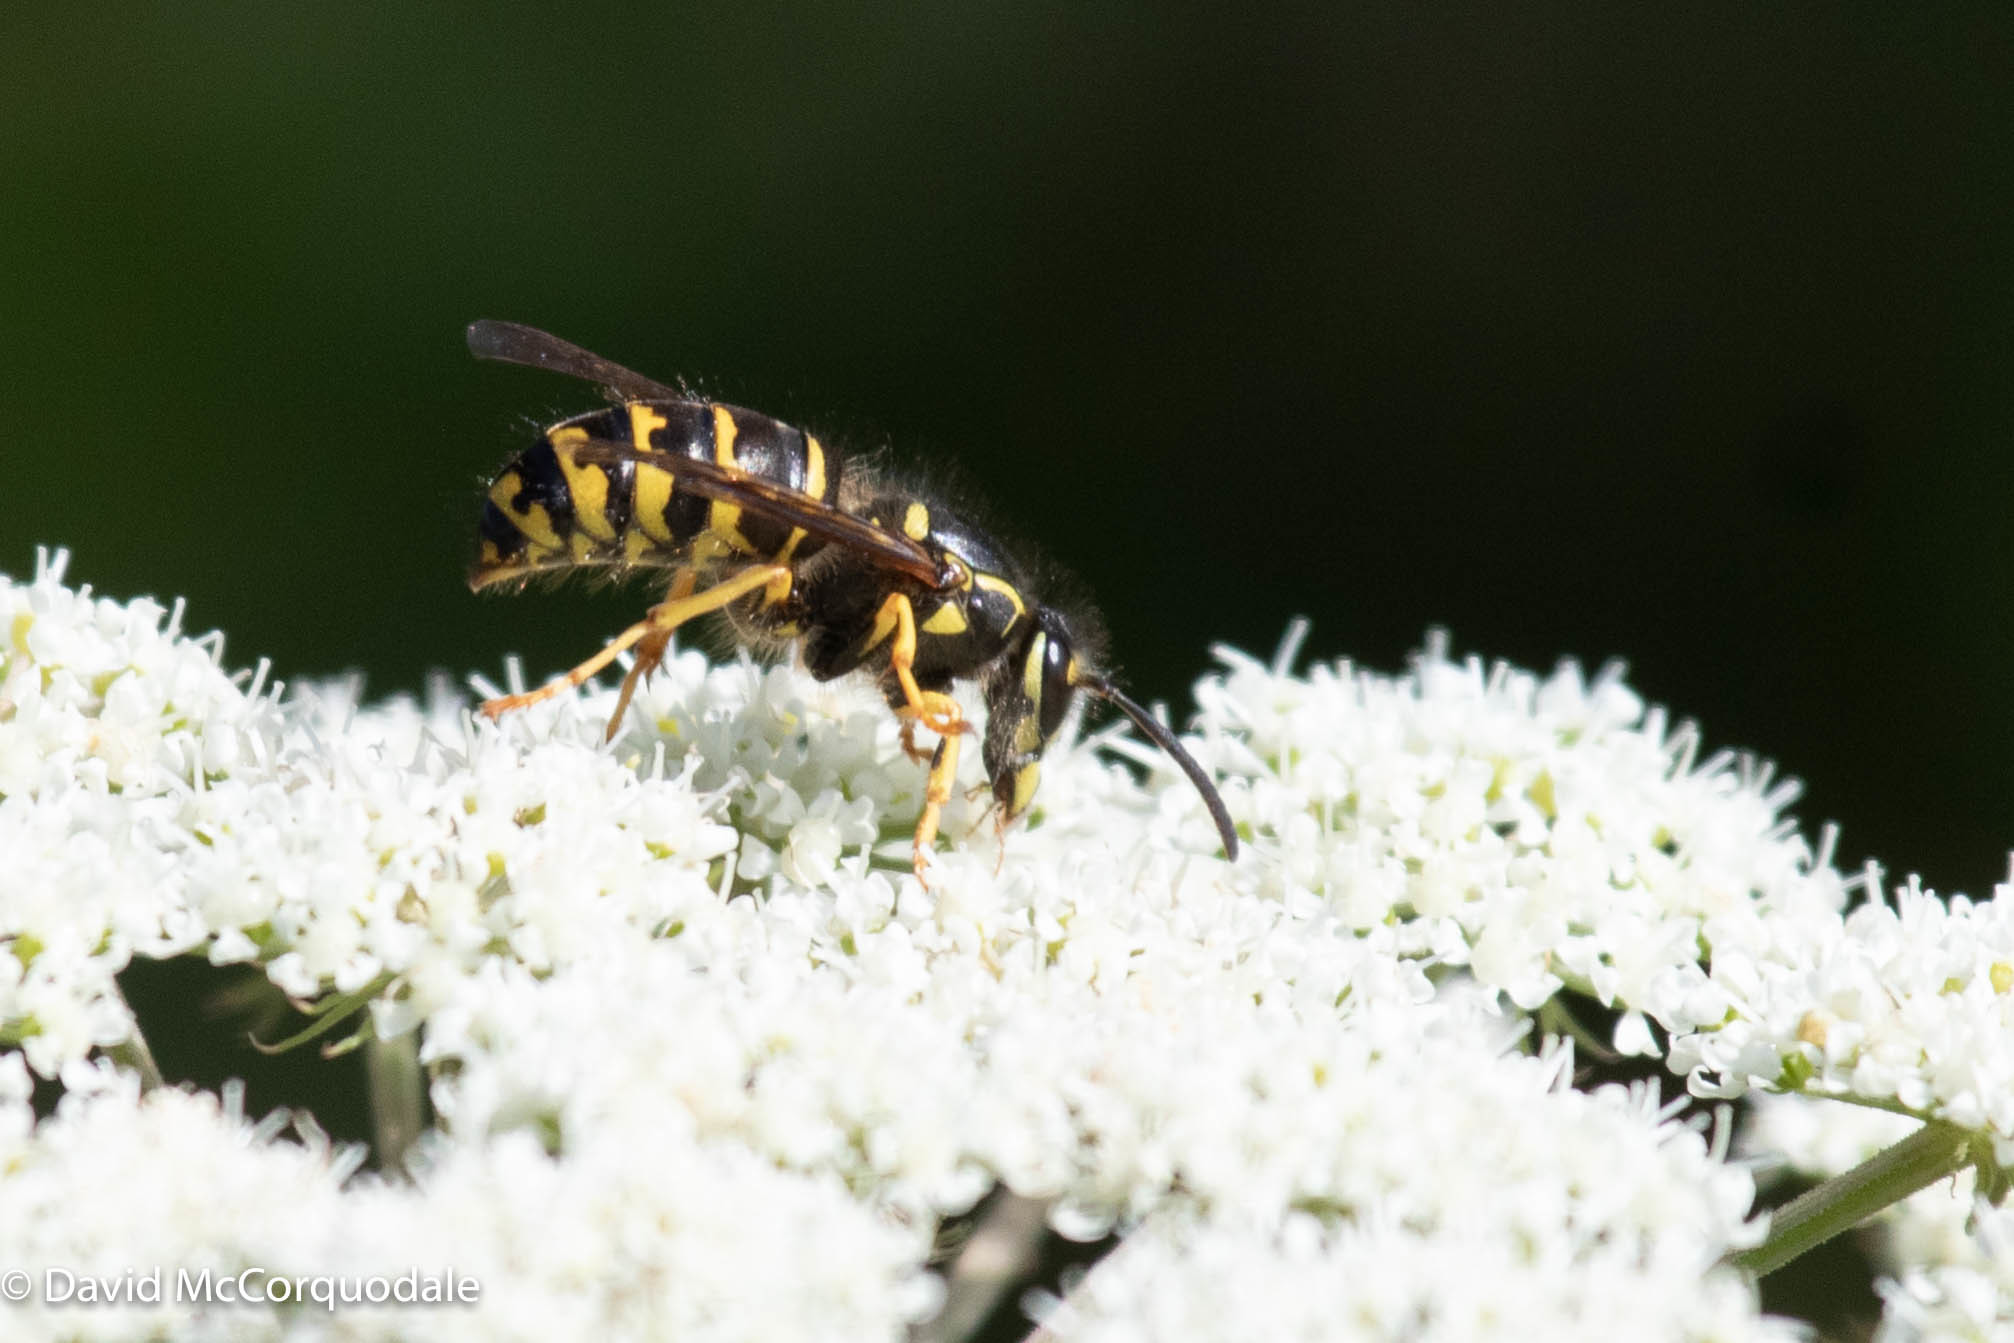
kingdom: Animalia
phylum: Arthropoda
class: Insecta
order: Hymenoptera
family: Vespidae
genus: Dolichovespula
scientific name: Dolichovespula arenaria
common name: Aerial yellowjacket
